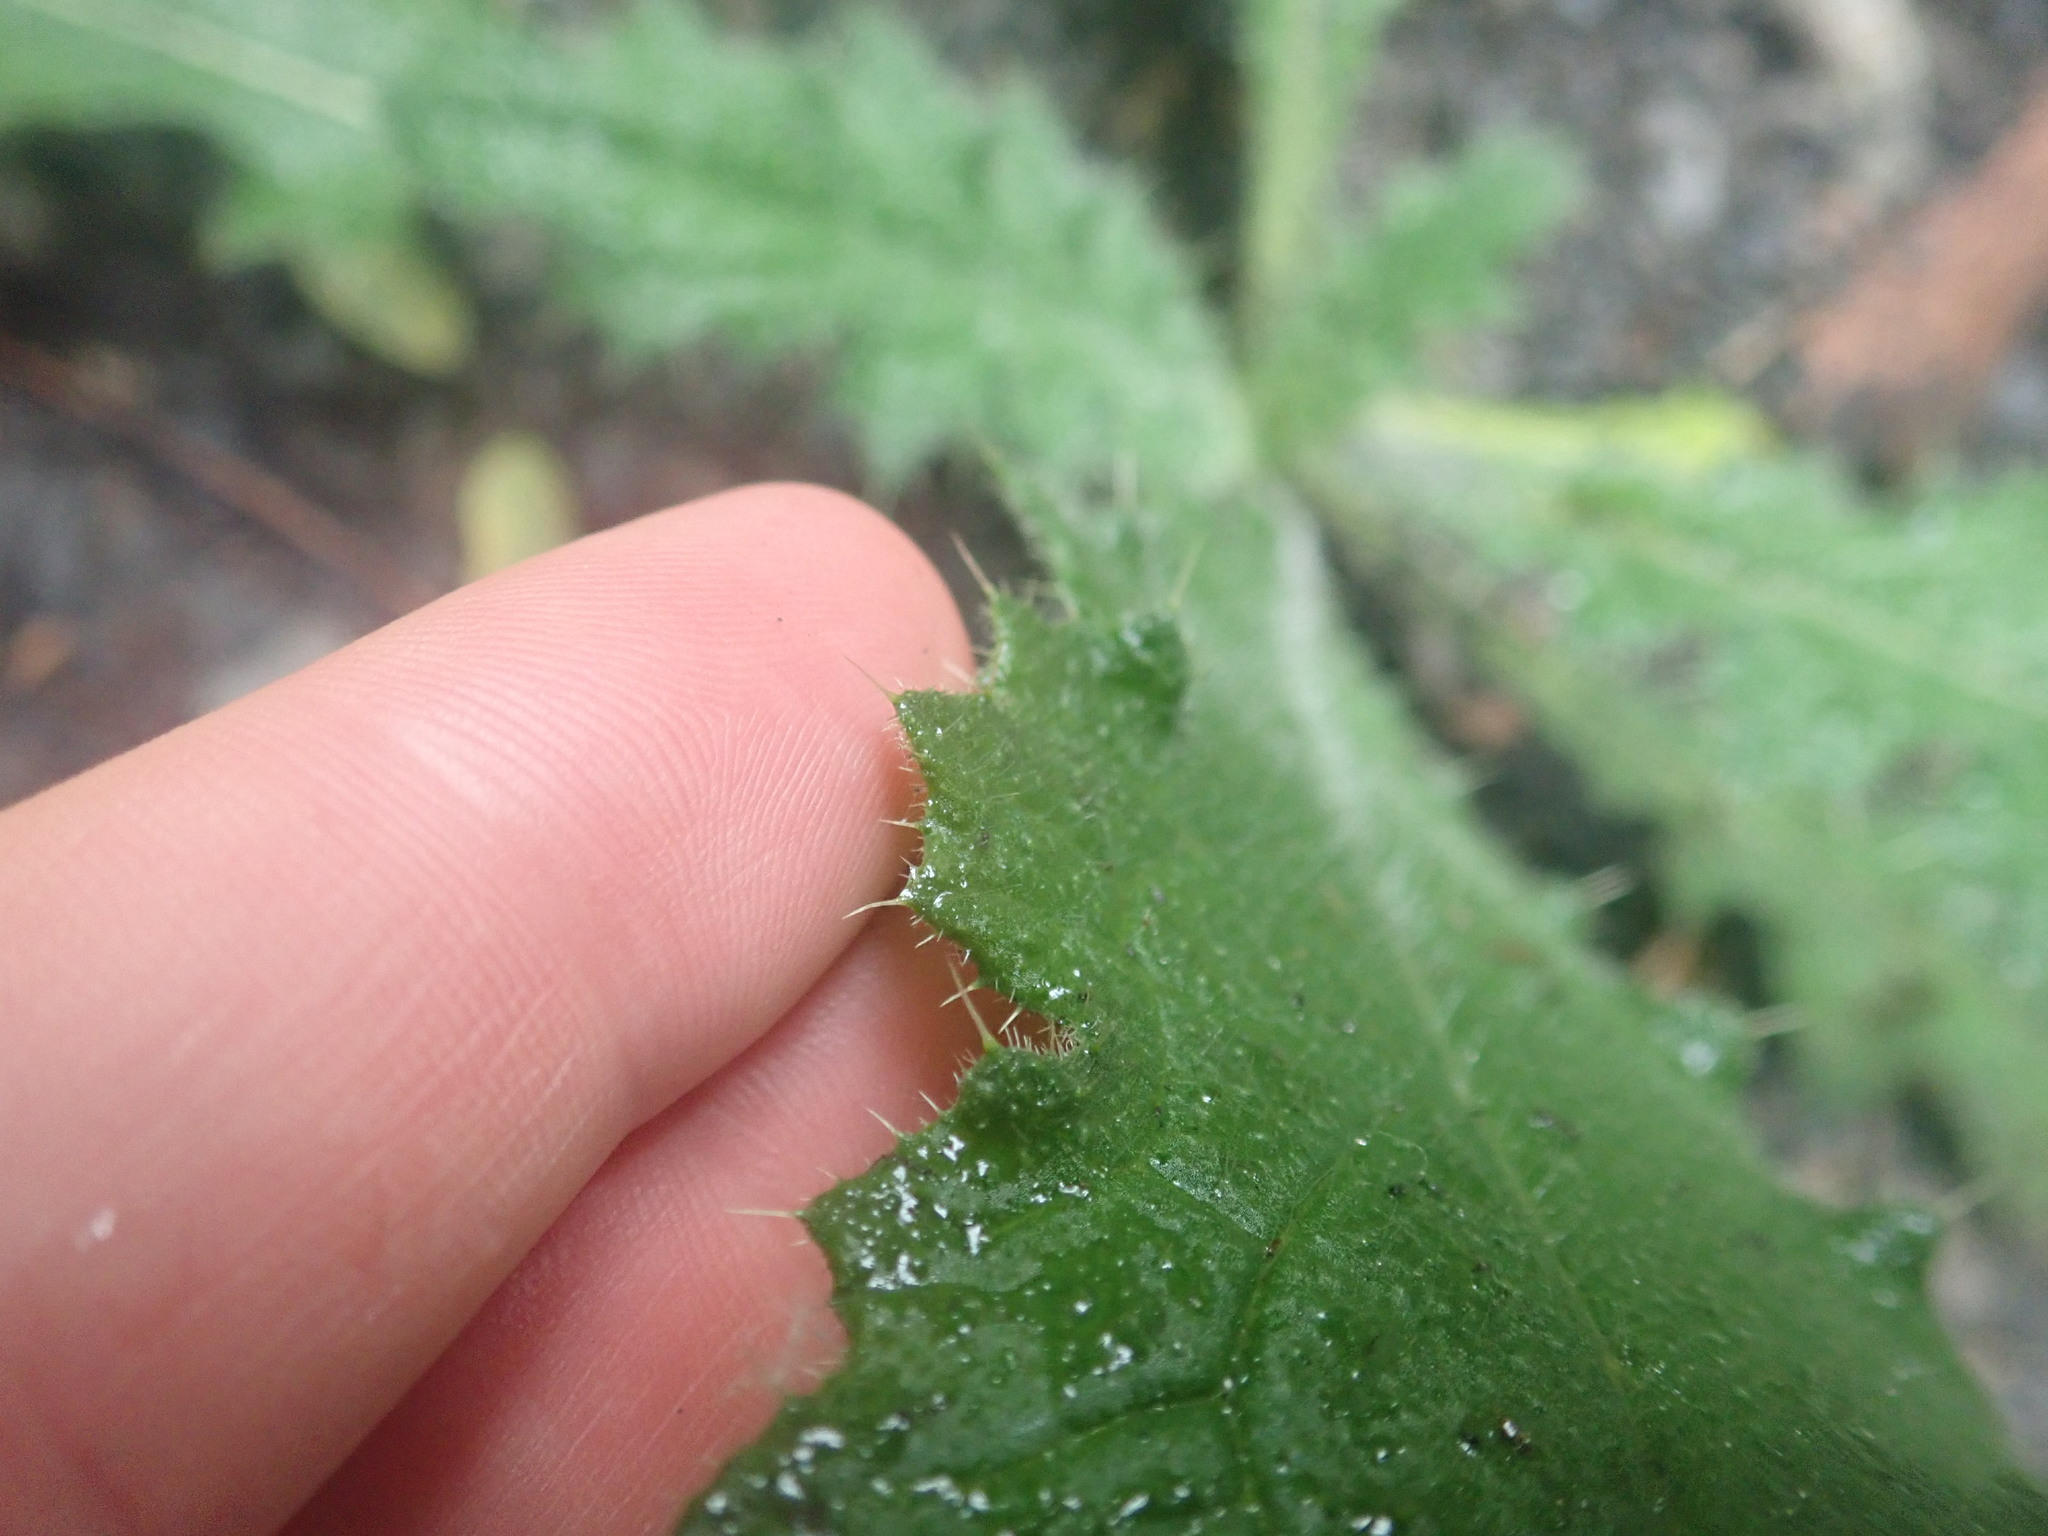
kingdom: Plantae
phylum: Tracheophyta
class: Magnoliopsida
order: Asterales
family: Asteraceae
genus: Cirsium
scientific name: Cirsium vulgare
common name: Bull thistle
